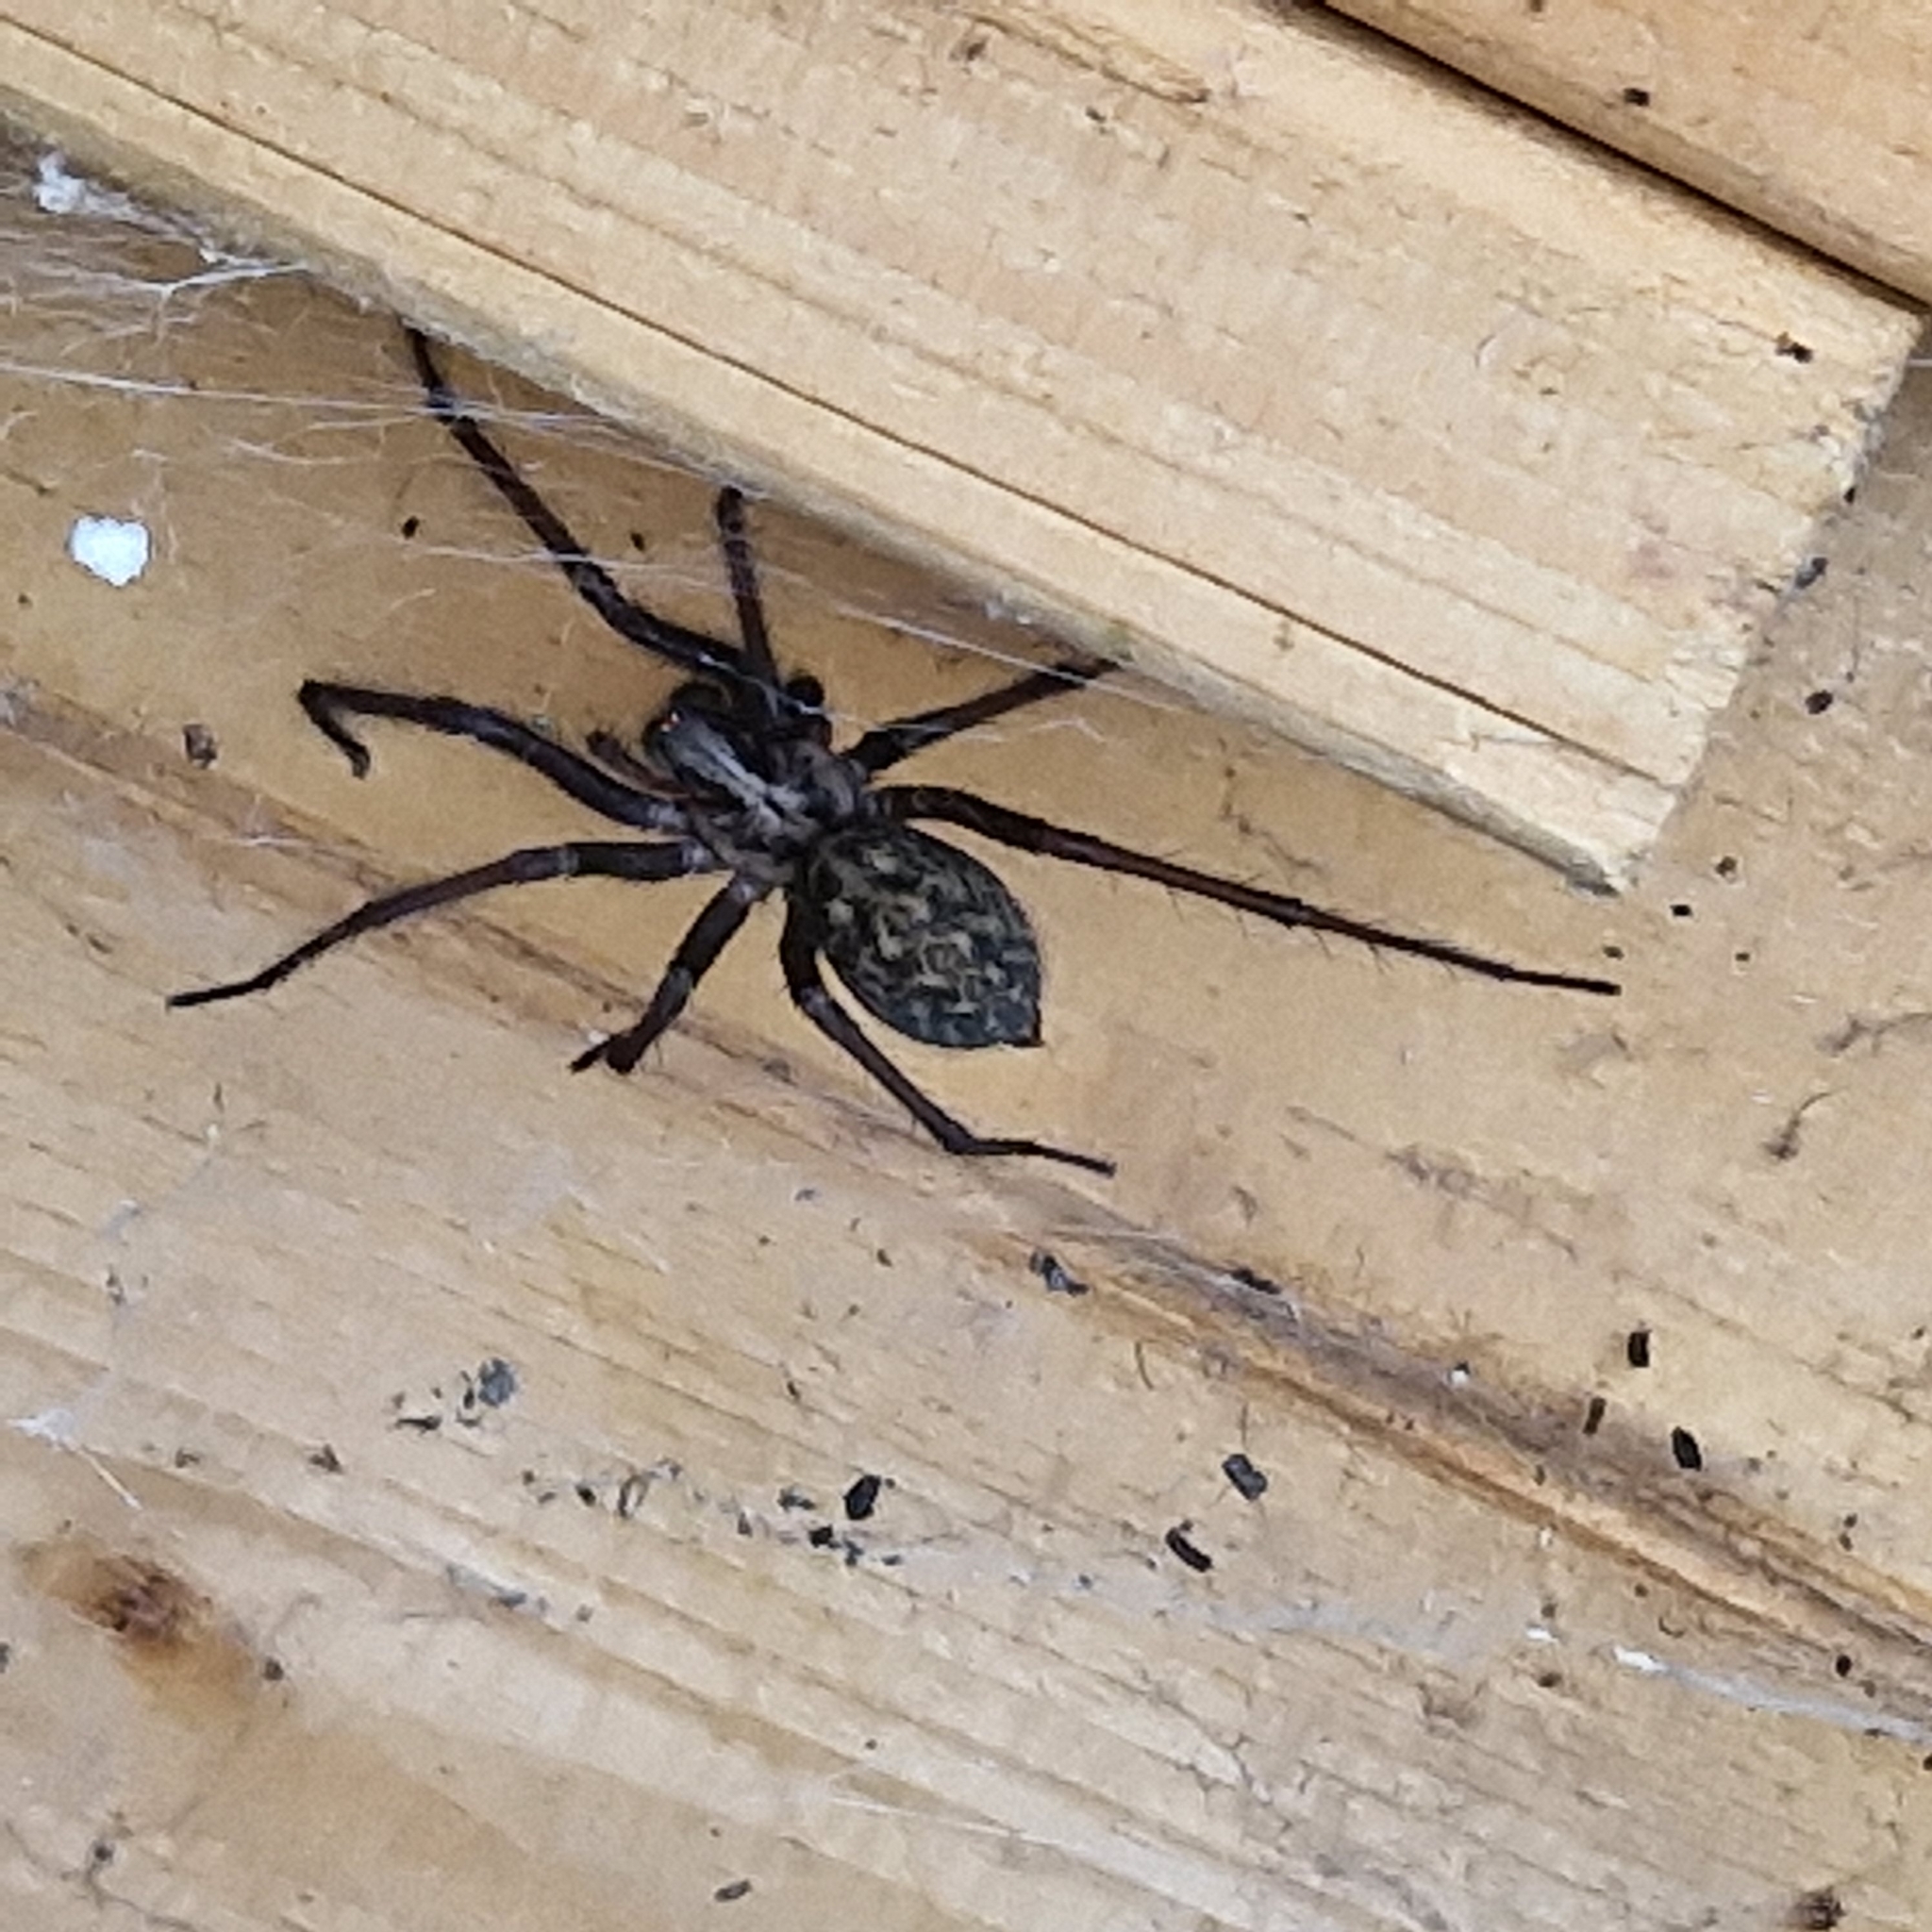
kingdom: Animalia
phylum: Arthropoda
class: Arachnida
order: Araneae
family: Agelenidae
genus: Eratigena
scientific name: Eratigena atrica
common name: Giant house spider
